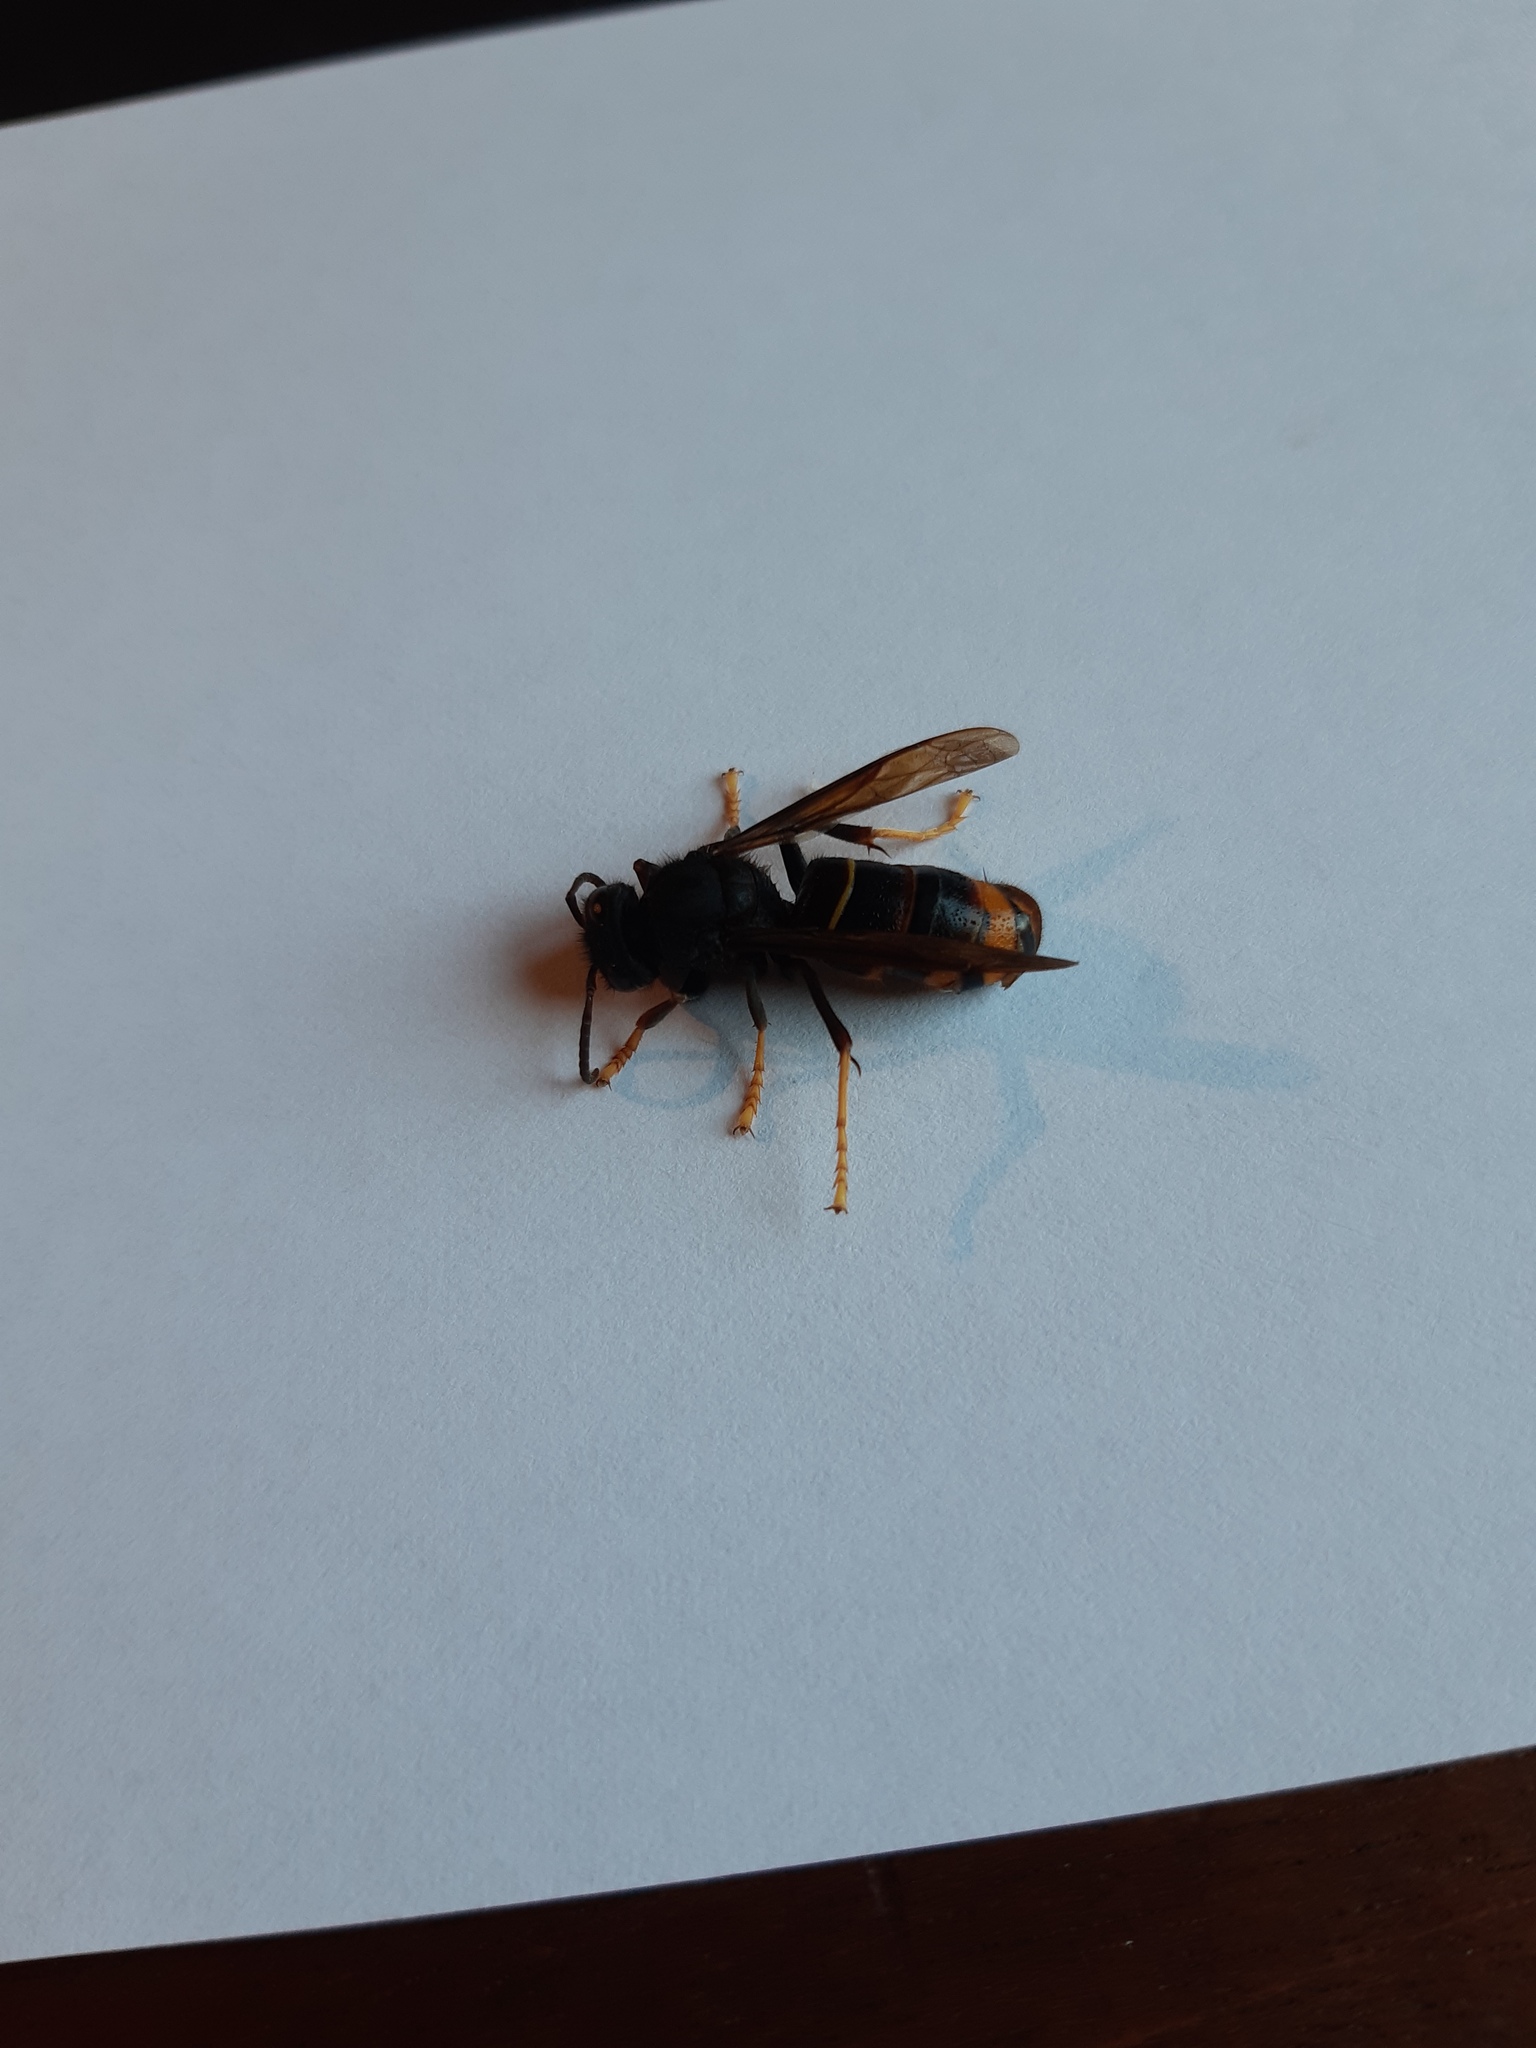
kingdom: Animalia
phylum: Arthropoda
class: Insecta
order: Hymenoptera
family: Vespidae
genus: Vespa
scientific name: Vespa velutina
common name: Asian hornet
